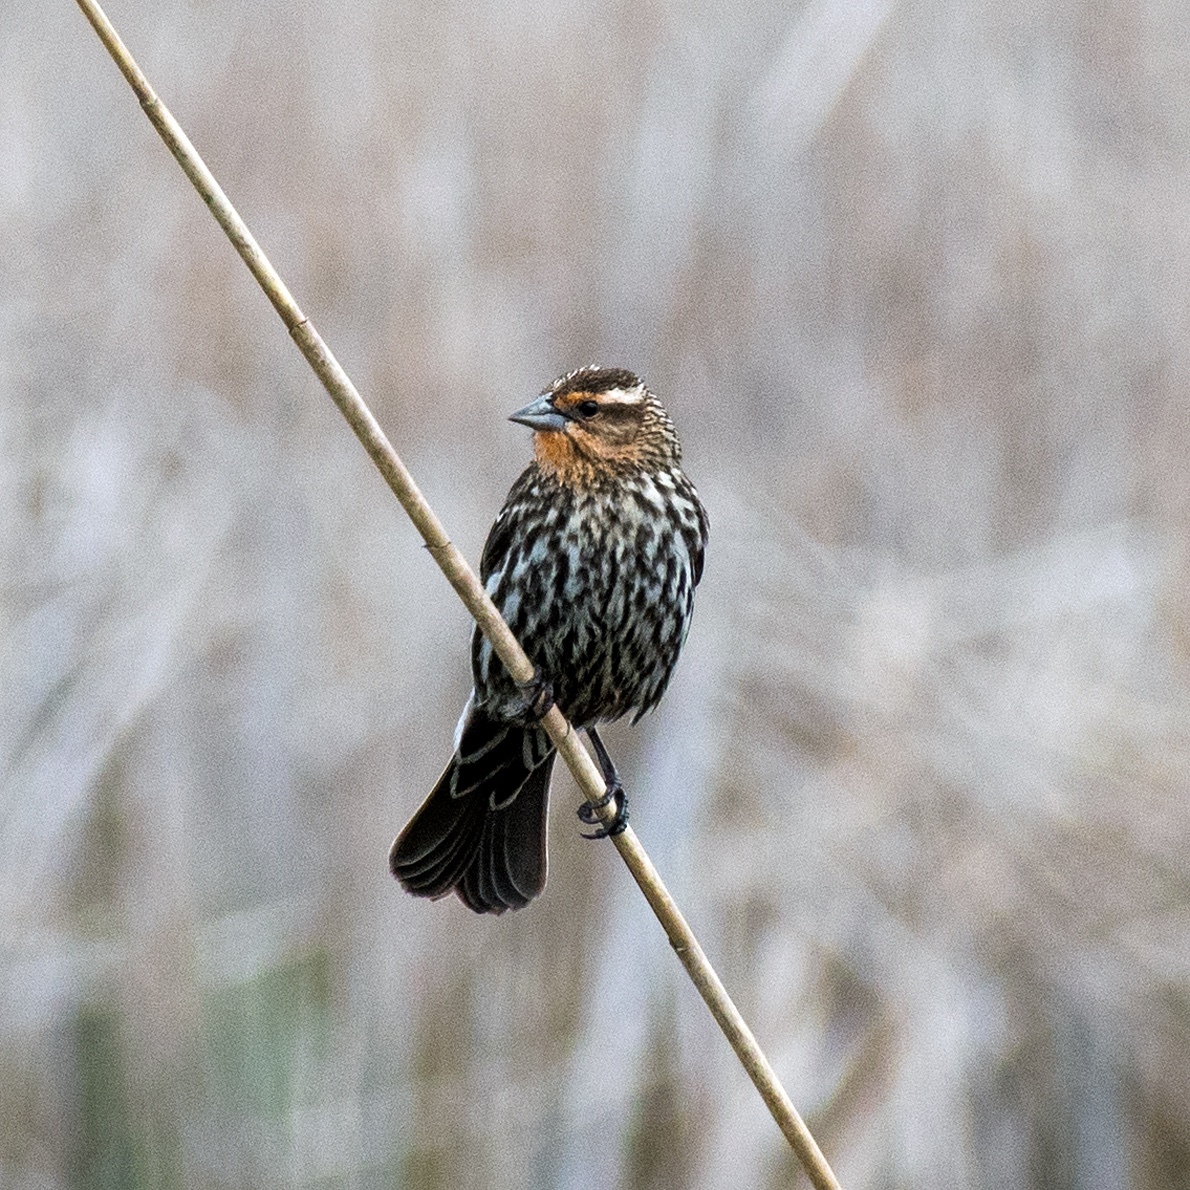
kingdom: Animalia
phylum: Chordata
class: Aves
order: Passeriformes
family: Icteridae
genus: Agelaius
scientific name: Agelaius phoeniceus
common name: Red-winged blackbird
